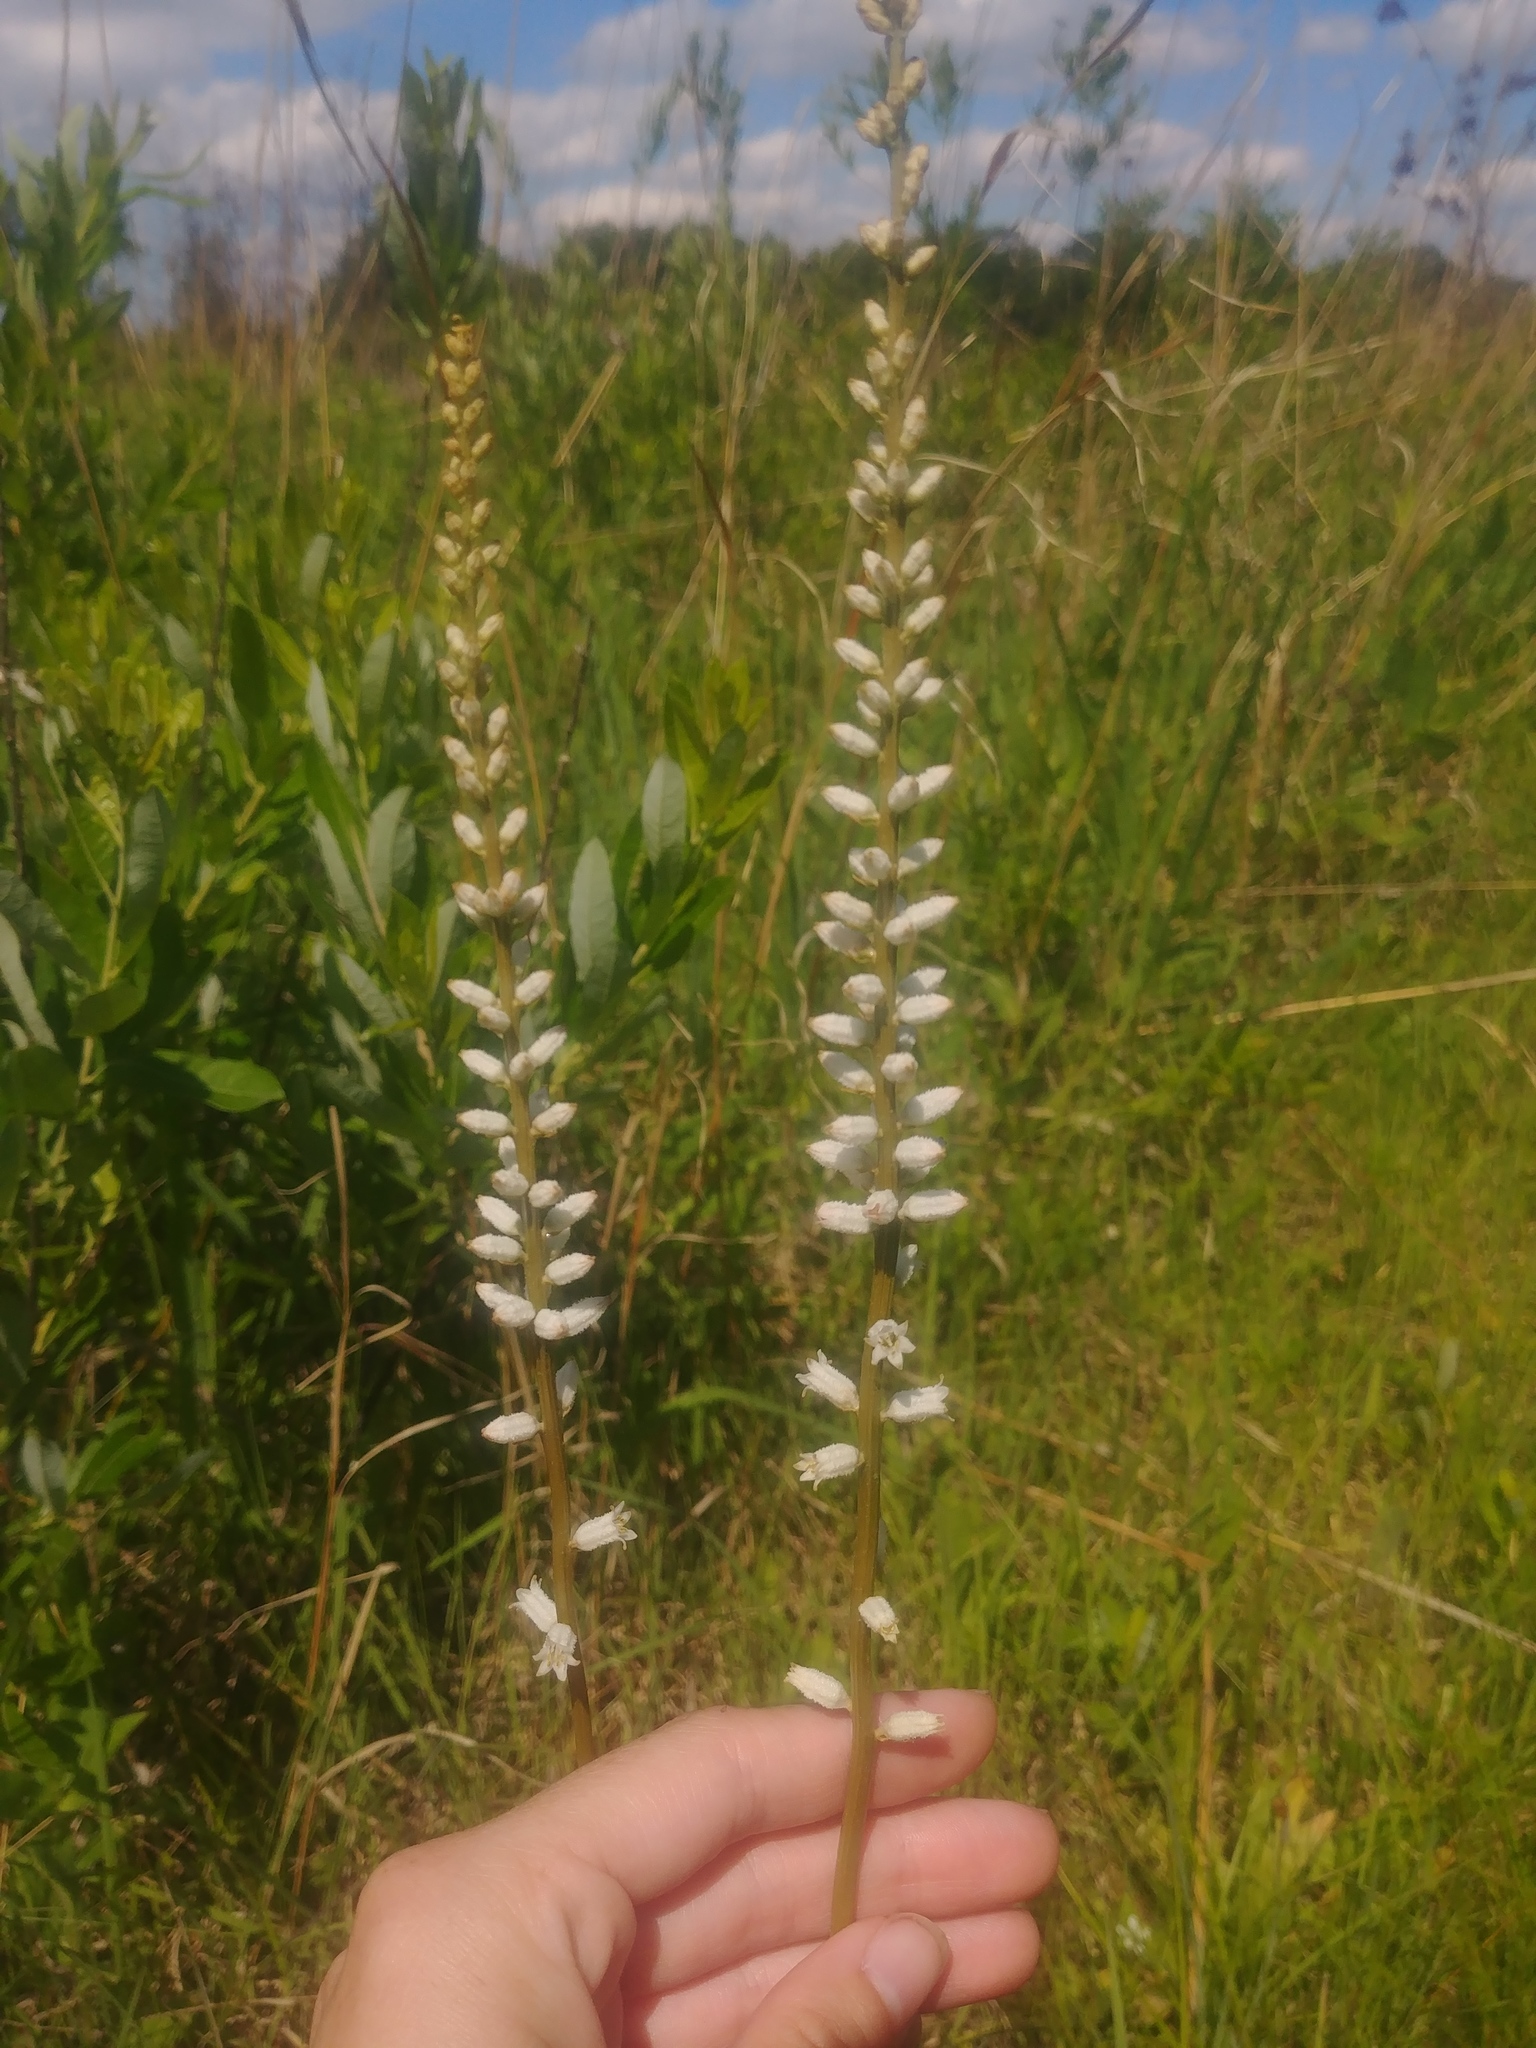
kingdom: Plantae
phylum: Tracheophyta
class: Liliopsida
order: Dioscoreales
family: Nartheciaceae
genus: Aletris
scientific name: Aletris farinosa
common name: Colicroot
